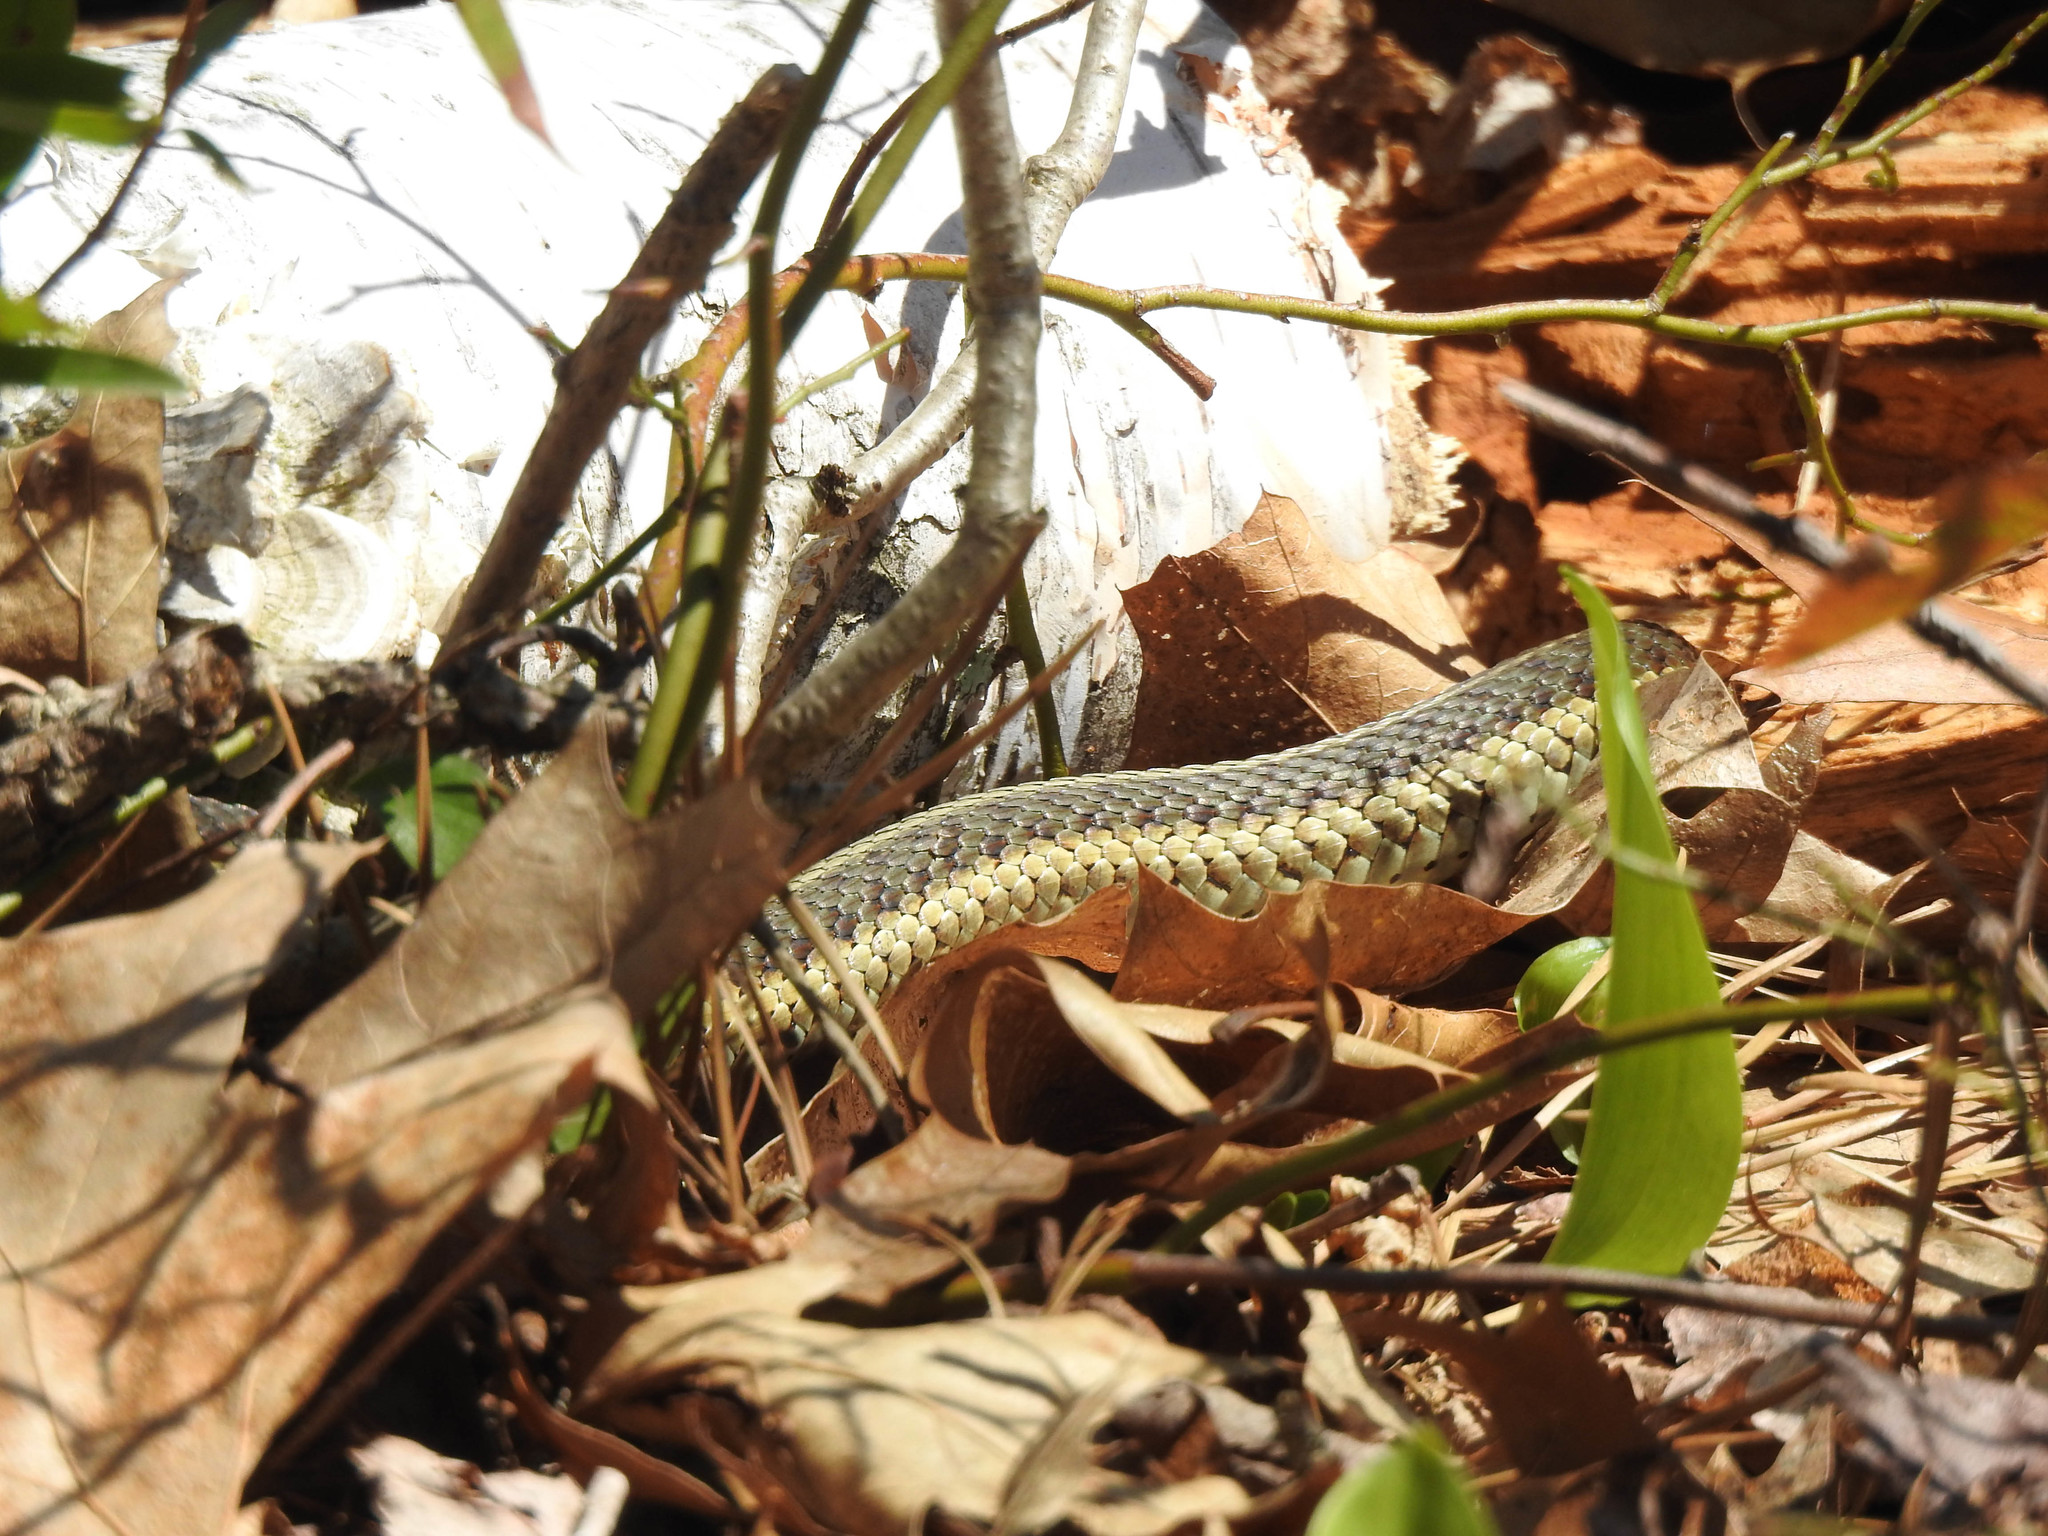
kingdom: Animalia
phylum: Chordata
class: Squamata
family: Colubridae
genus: Thamnophis
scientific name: Thamnophis sirtalis
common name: Common garter snake
